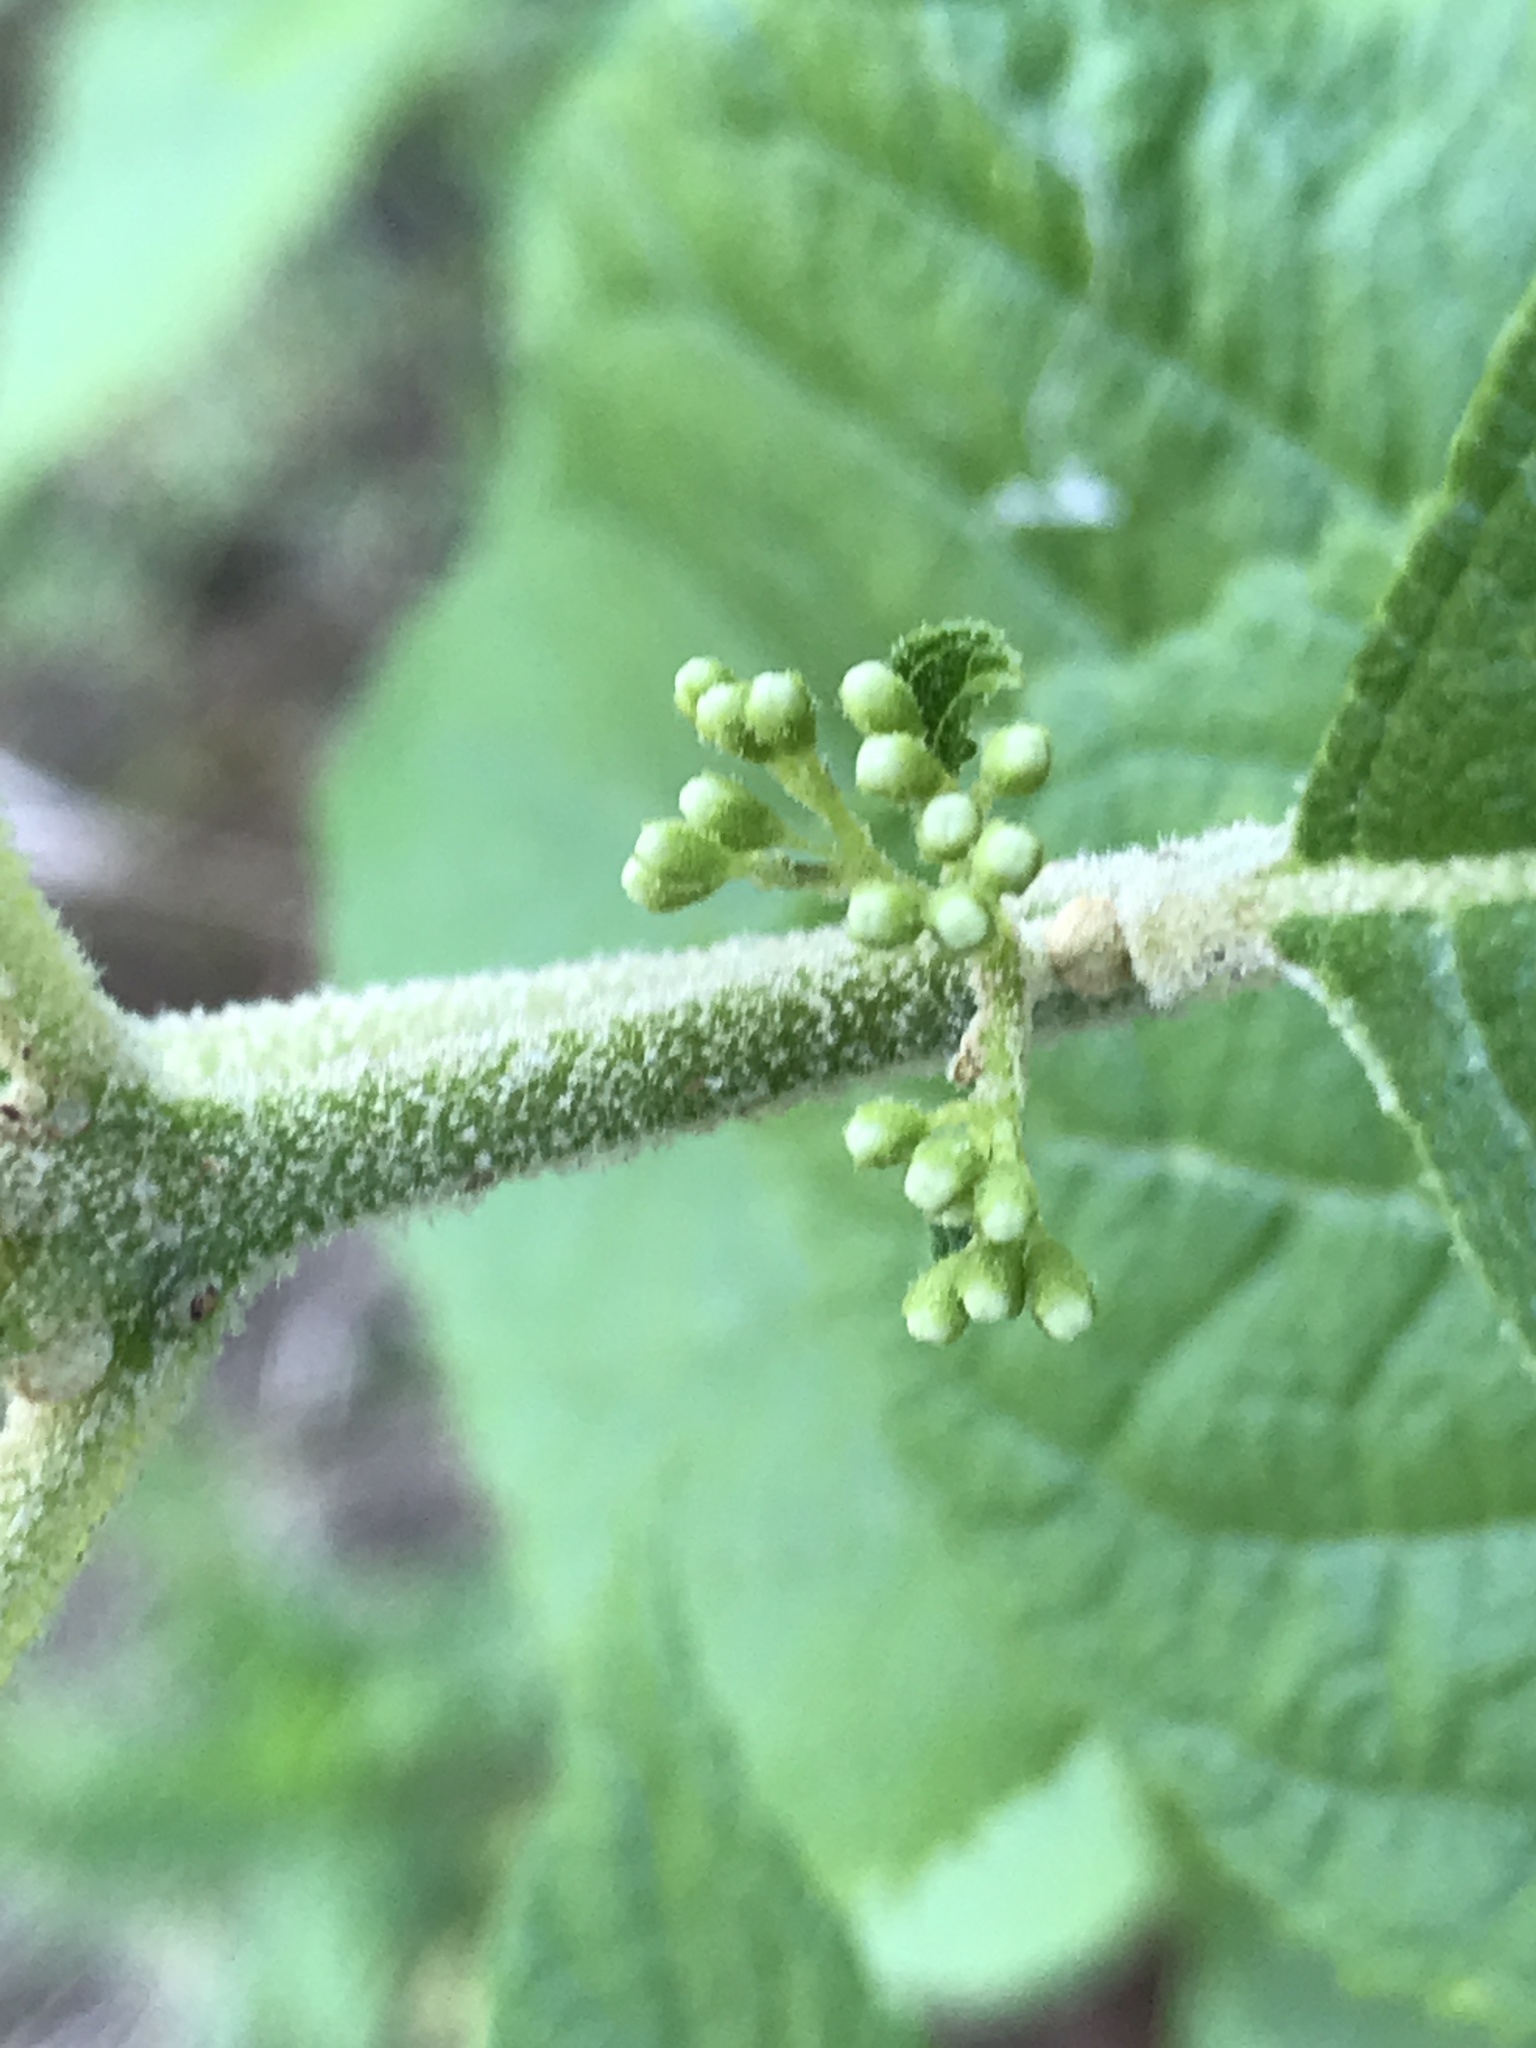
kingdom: Plantae
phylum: Tracheophyta
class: Magnoliopsida
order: Lamiales
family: Lamiaceae
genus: Callicarpa
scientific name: Callicarpa americana
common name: American beautyberry
